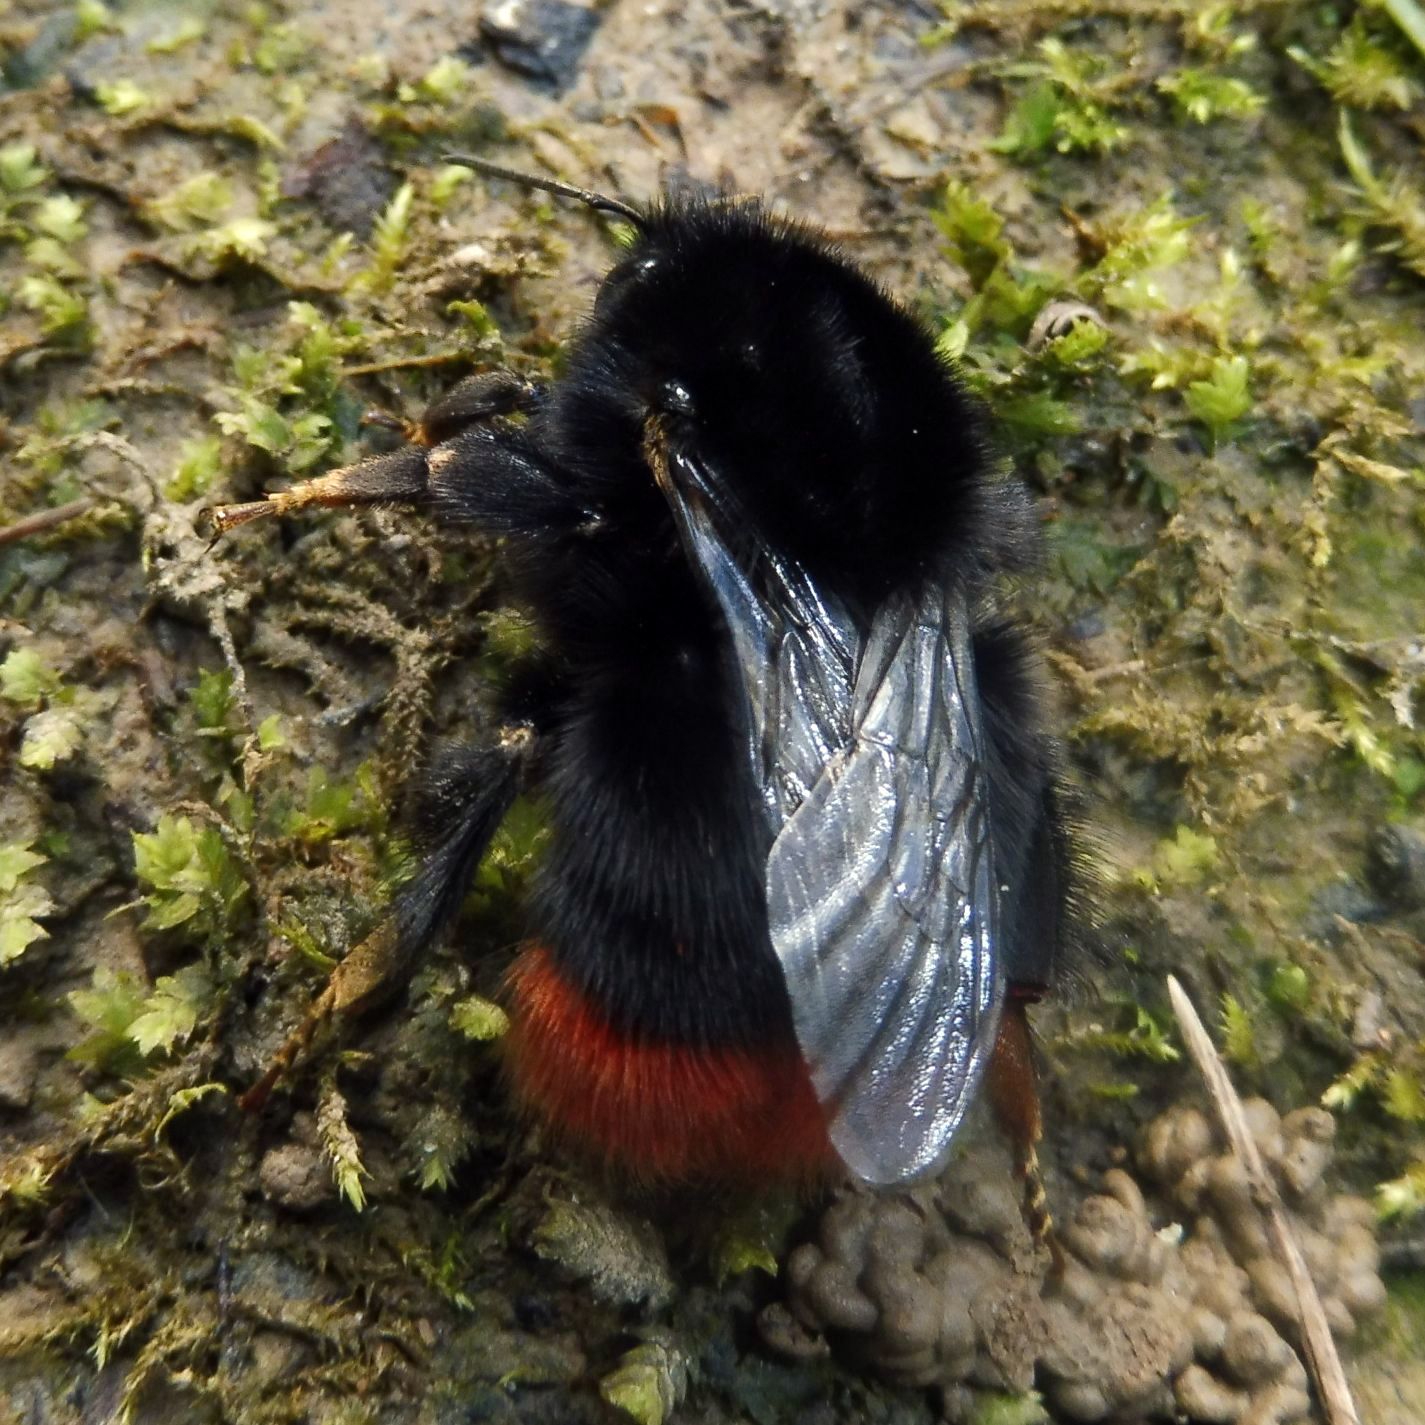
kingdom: Animalia
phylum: Arthropoda
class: Insecta
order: Hymenoptera
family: Apidae
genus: Bombus
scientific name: Bombus lapidarius
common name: Large red-tailed humble-bee
